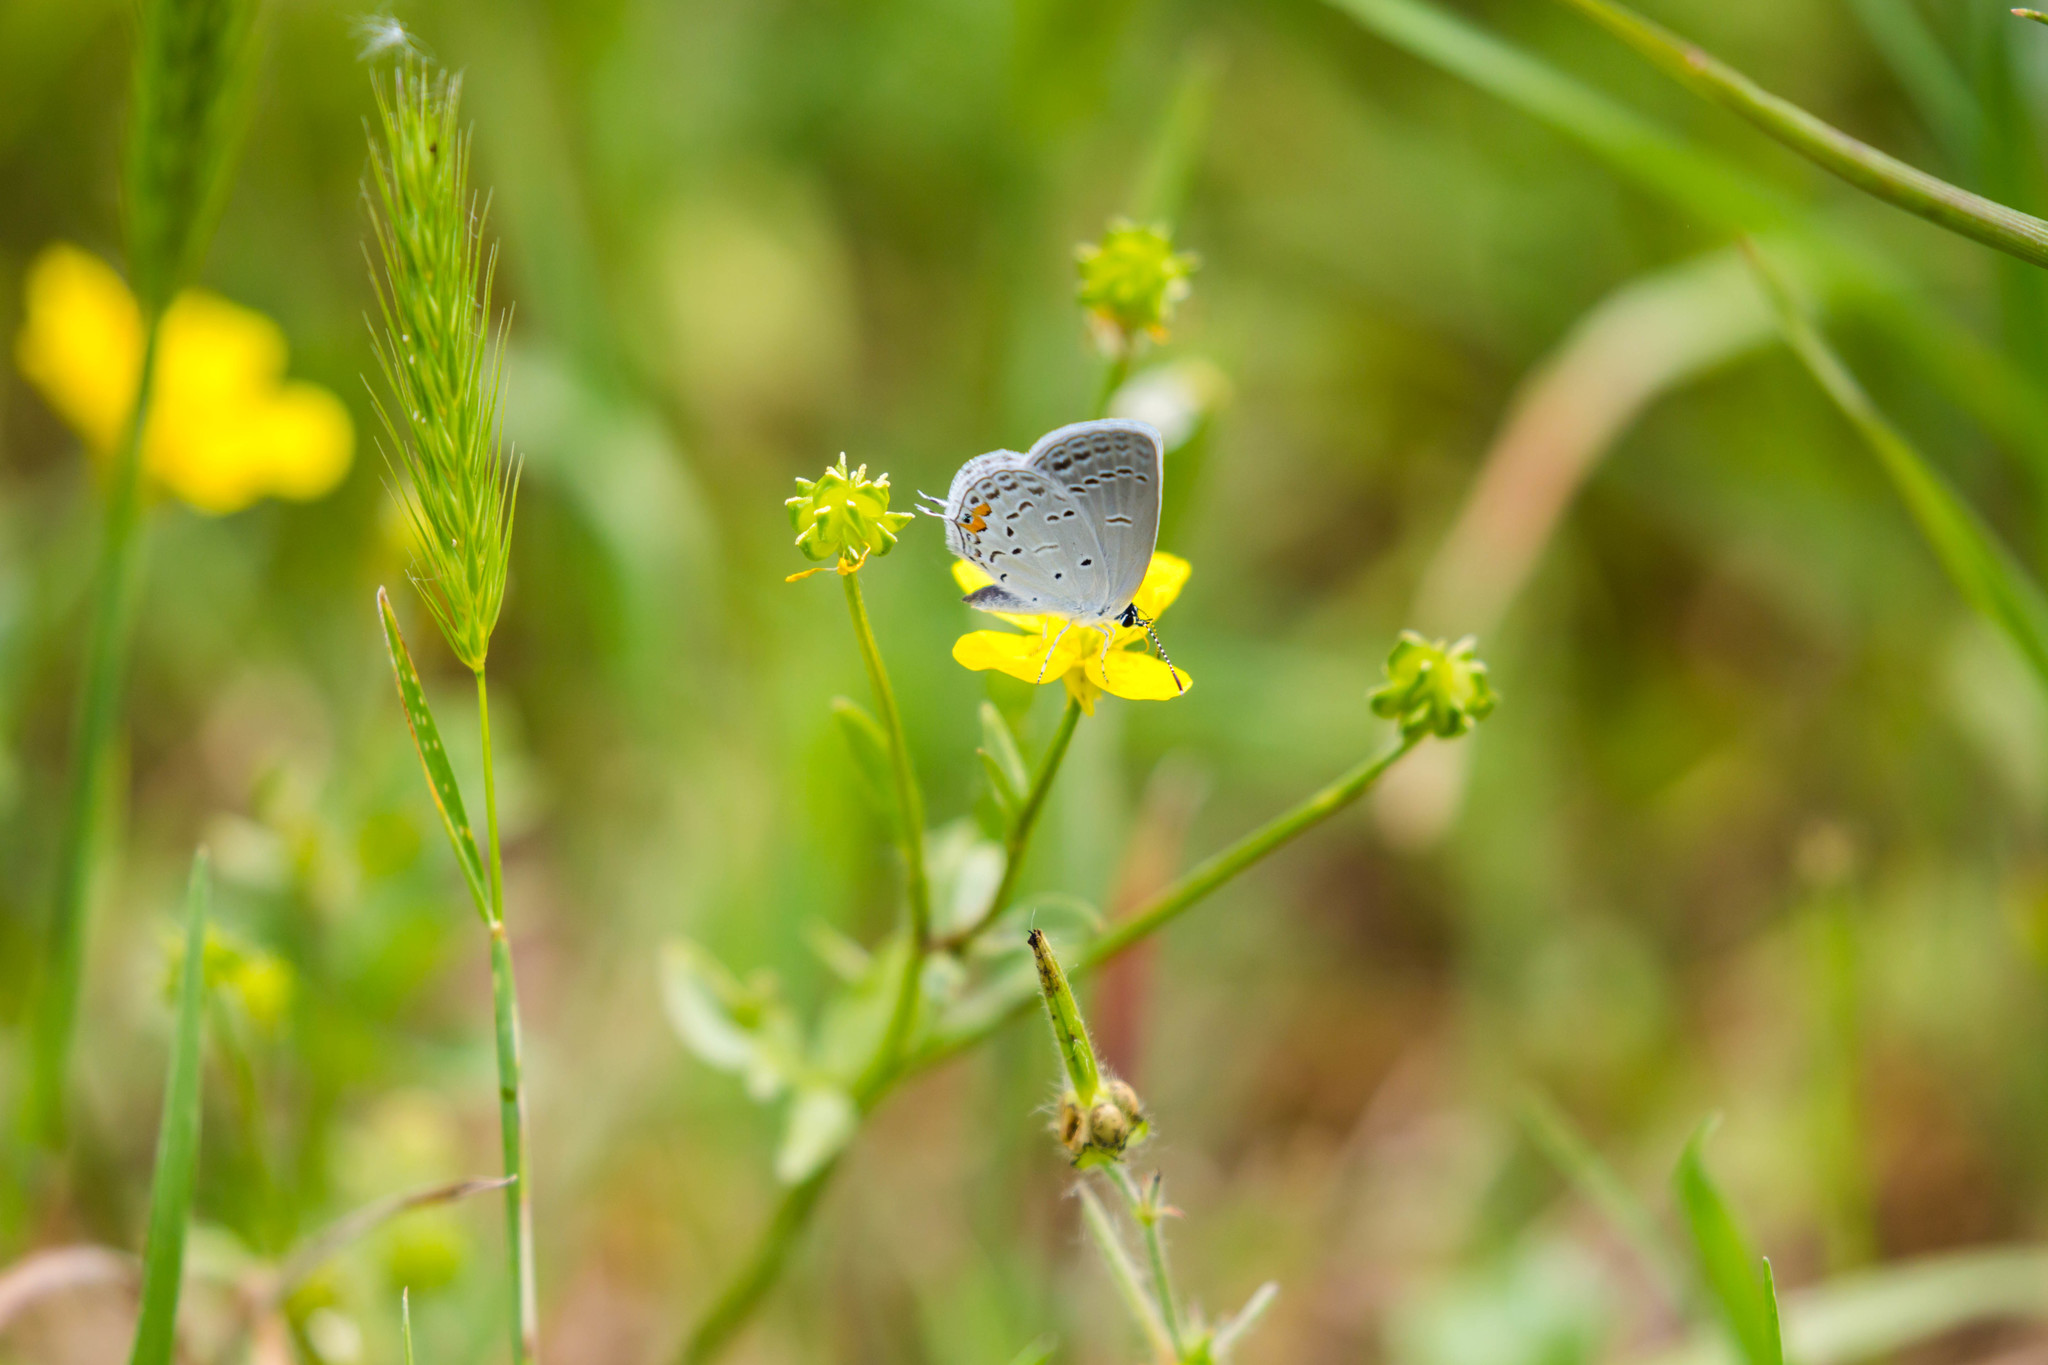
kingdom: Animalia
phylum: Arthropoda
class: Insecta
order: Lepidoptera
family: Lycaenidae
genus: Elkalyce
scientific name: Elkalyce comyntas
